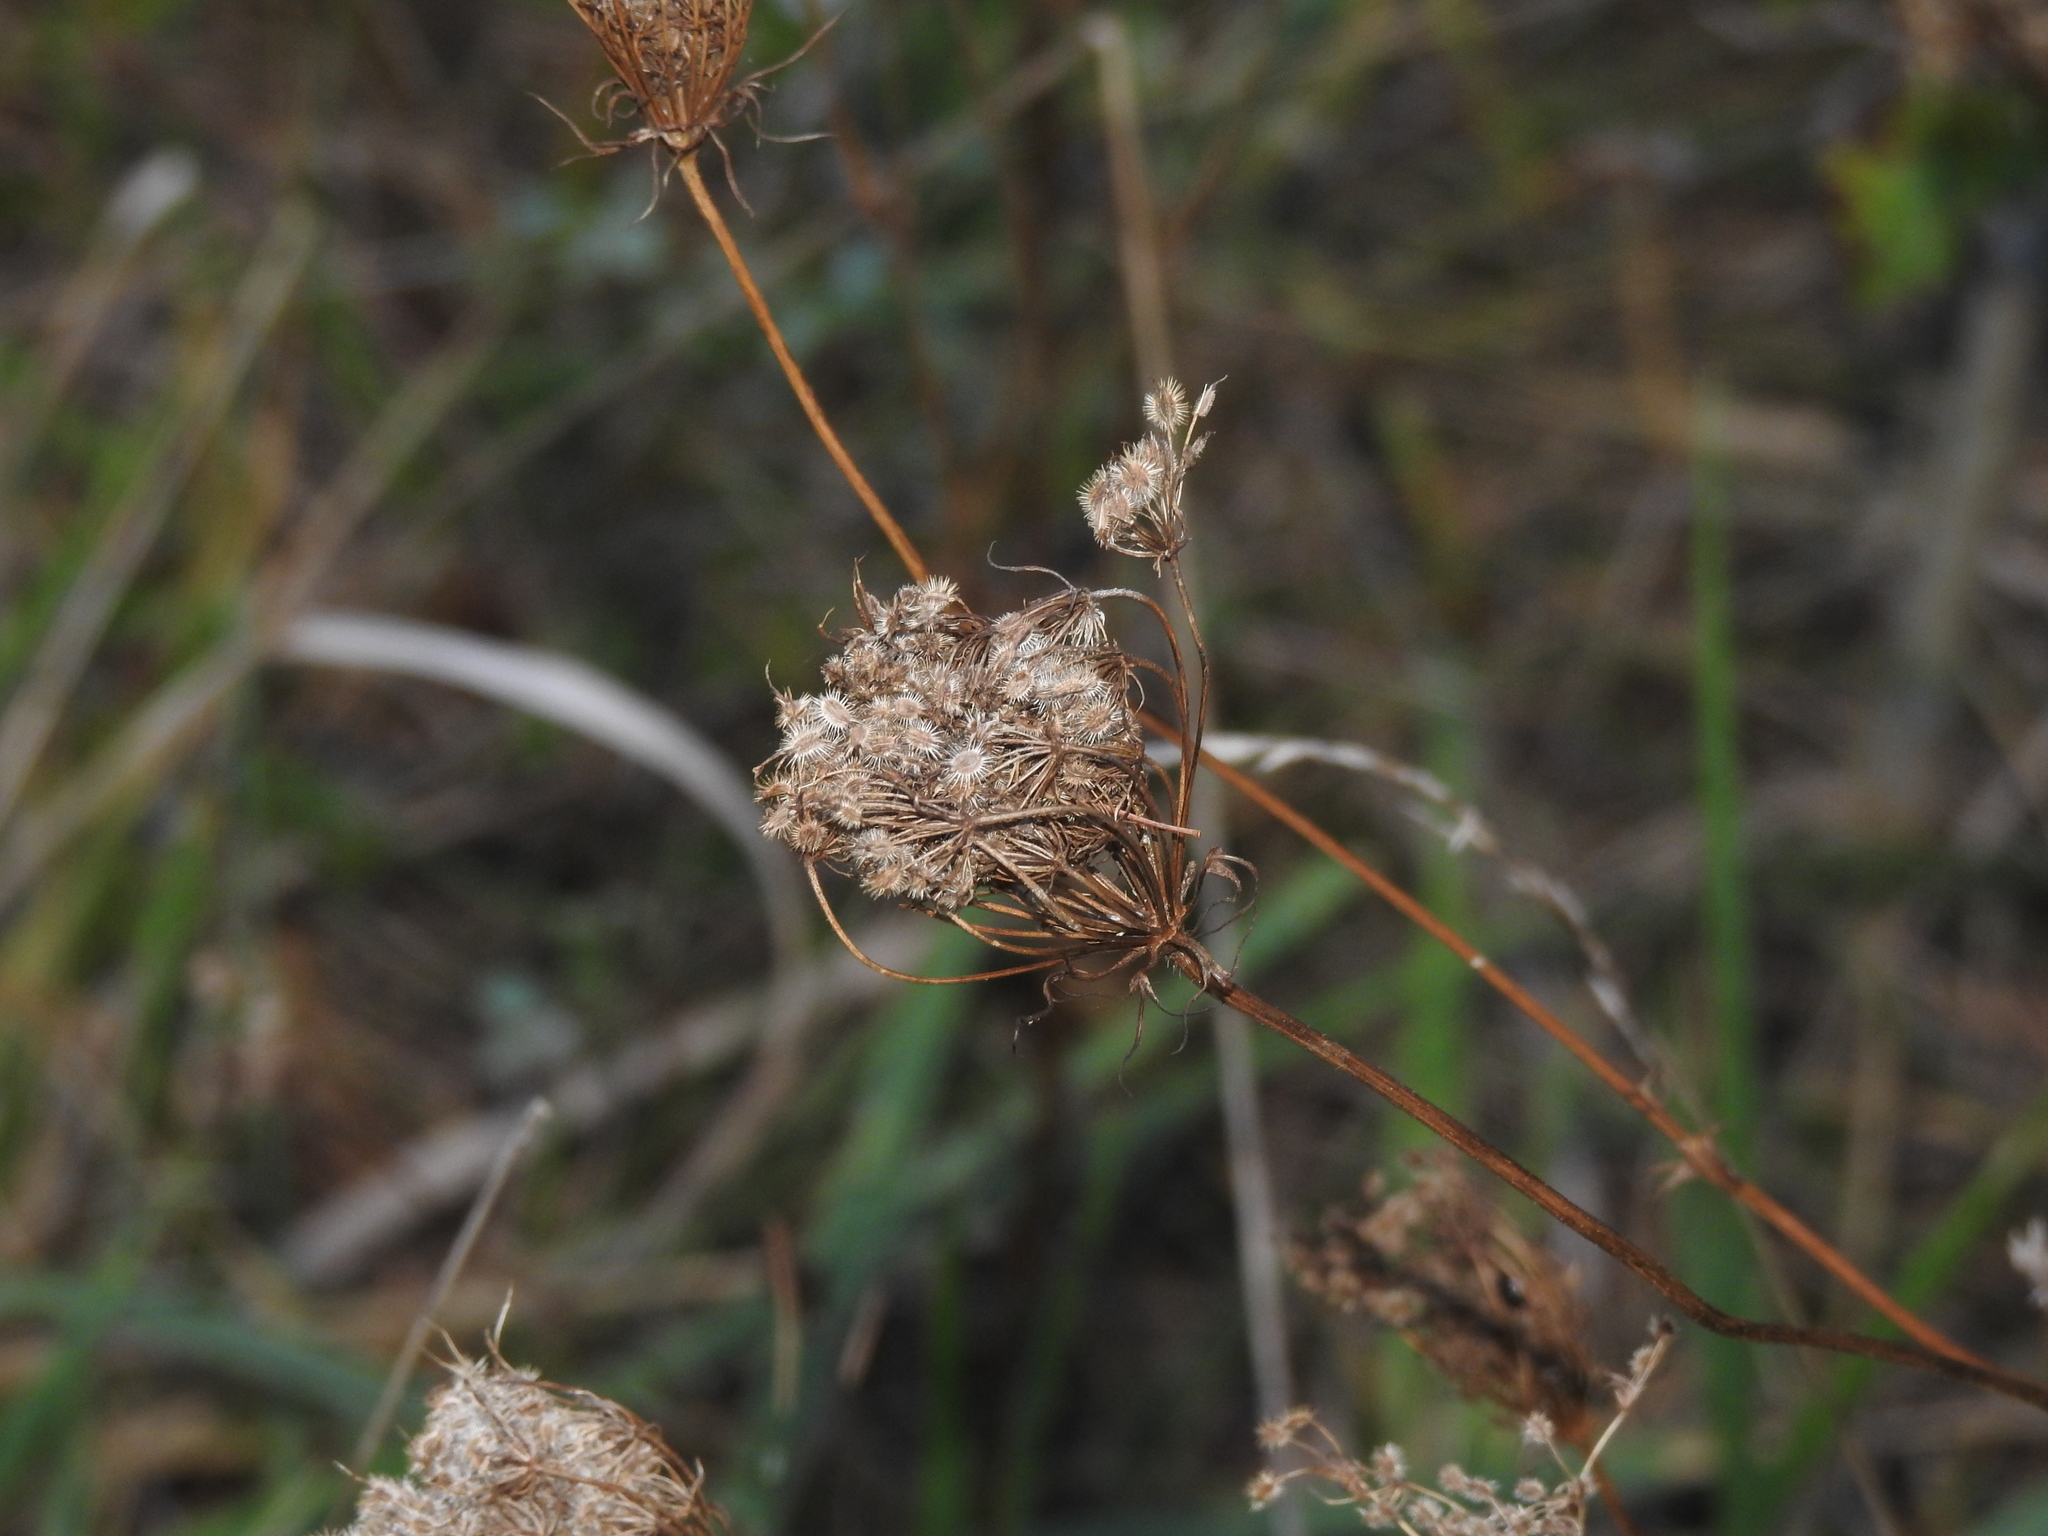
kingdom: Plantae
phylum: Tracheophyta
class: Magnoliopsida
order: Apiales
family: Apiaceae
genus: Daucus
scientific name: Daucus carota
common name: Wild carrot
